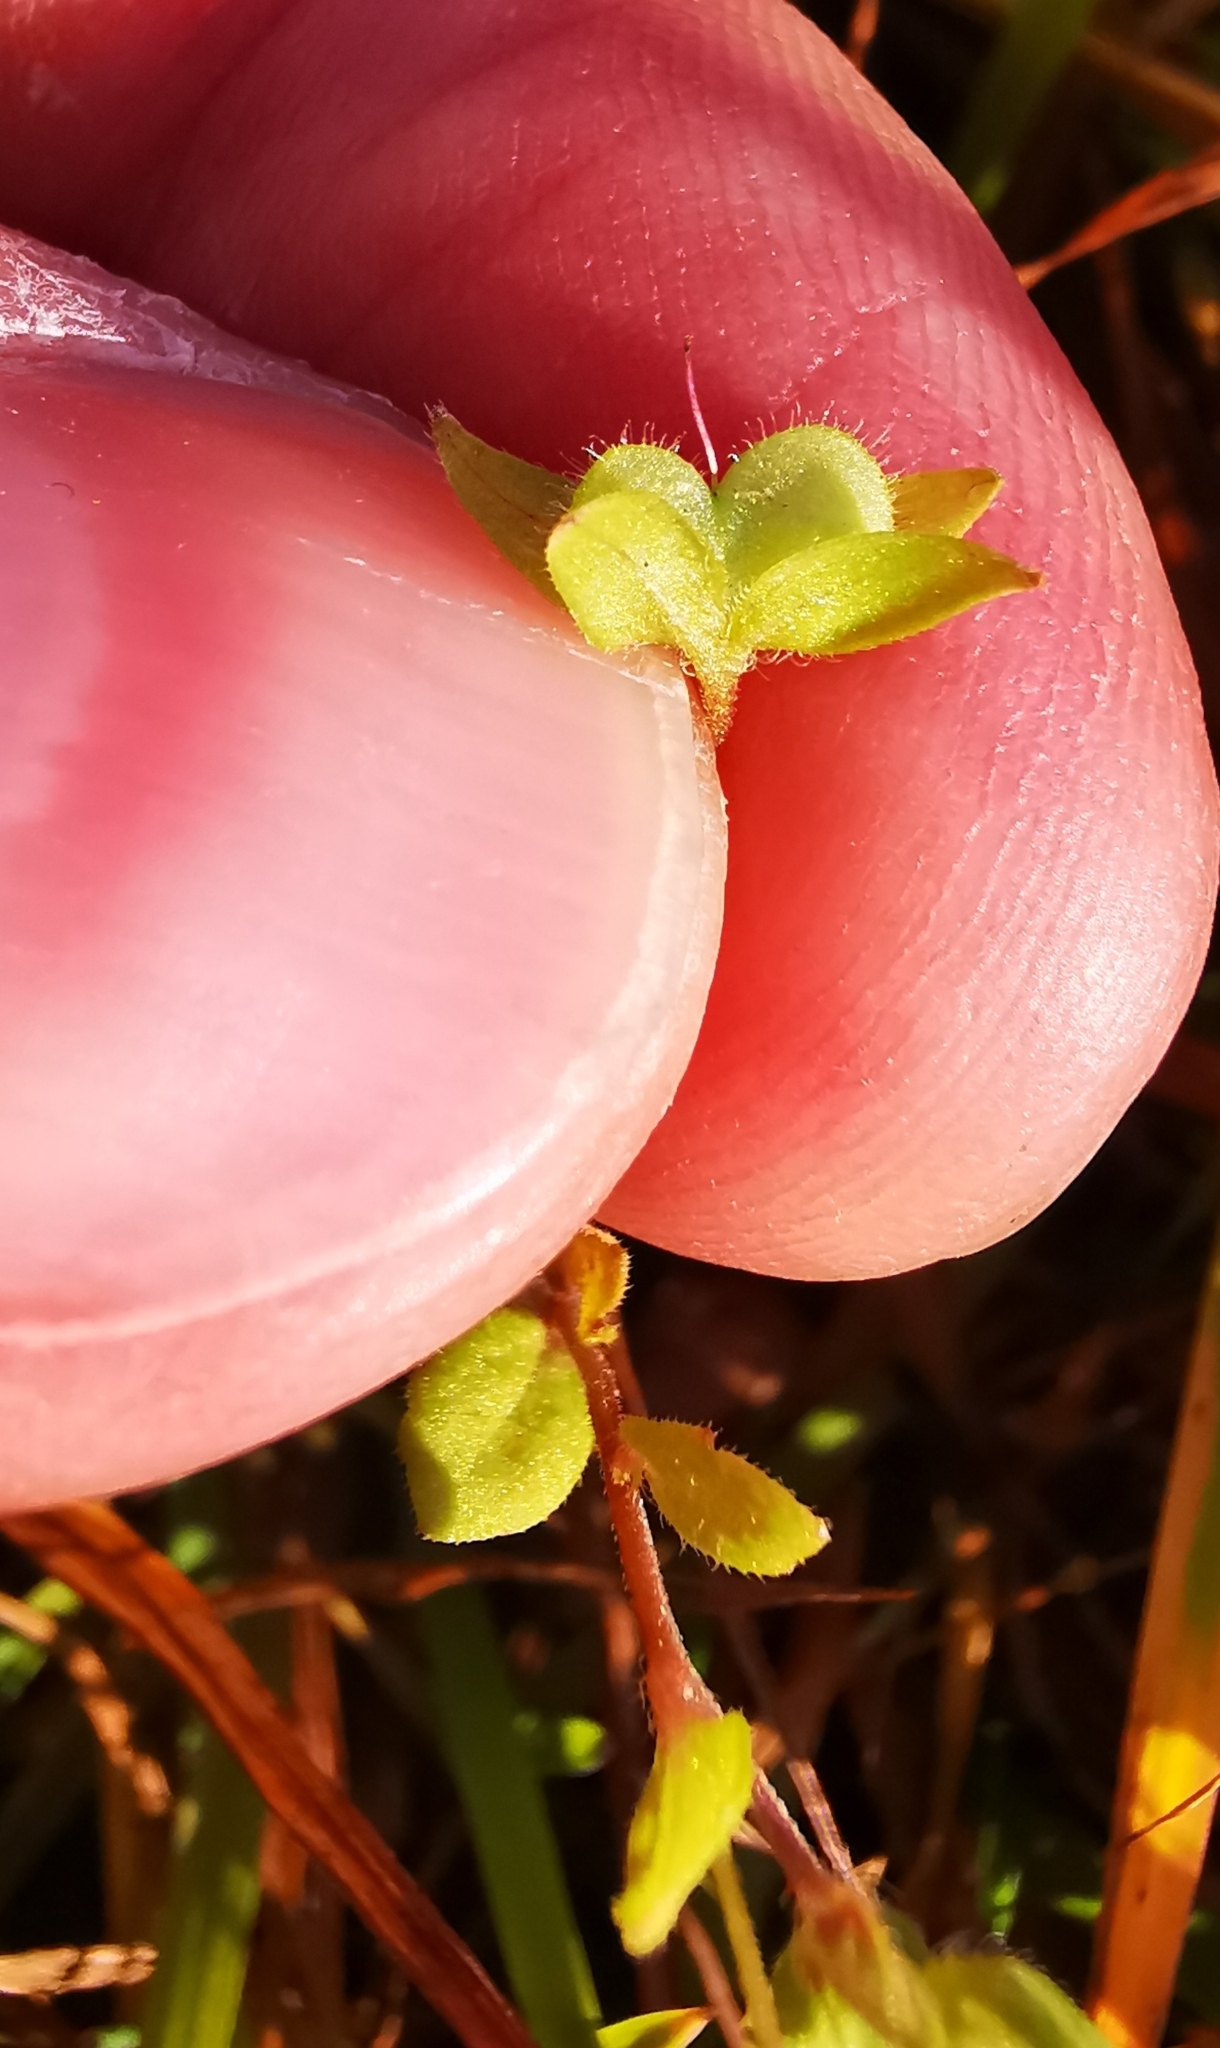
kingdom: Plantae
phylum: Tracheophyta
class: Magnoliopsida
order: Lamiales
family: Plantaginaceae
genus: Veronica
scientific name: Veronica persica
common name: Common field-speedwell
